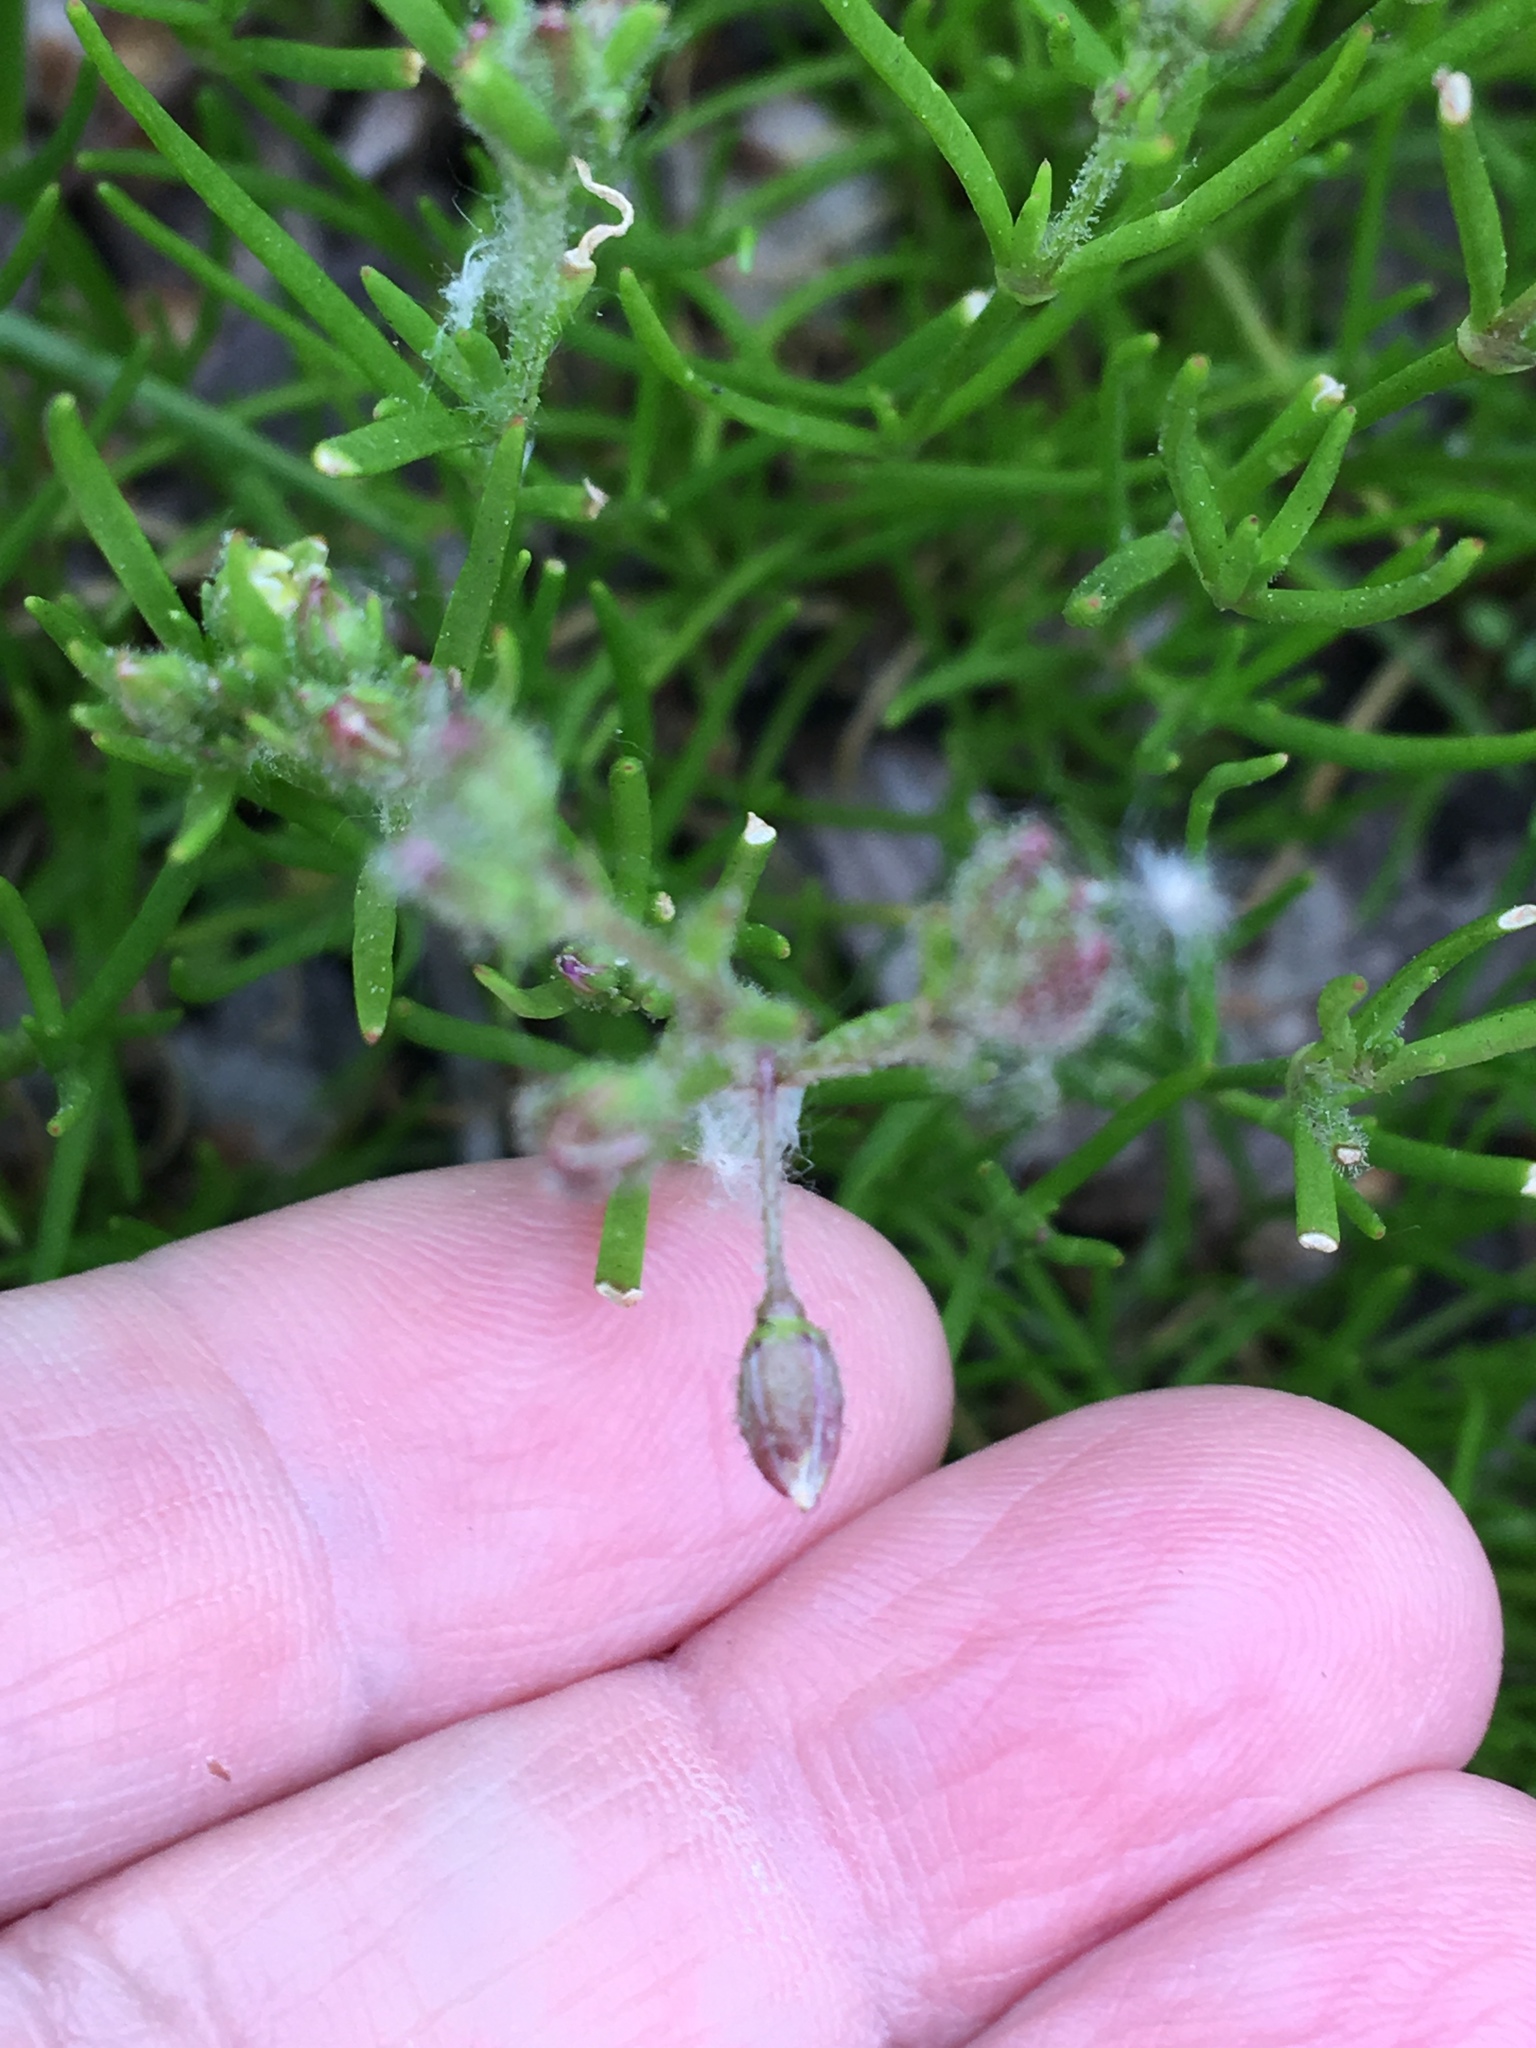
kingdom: Plantae
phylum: Tracheophyta
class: Magnoliopsida
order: Caryophyllales
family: Caryophyllaceae
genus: Spergularia
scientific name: Spergularia marina
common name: Lesser sea-spurrey
